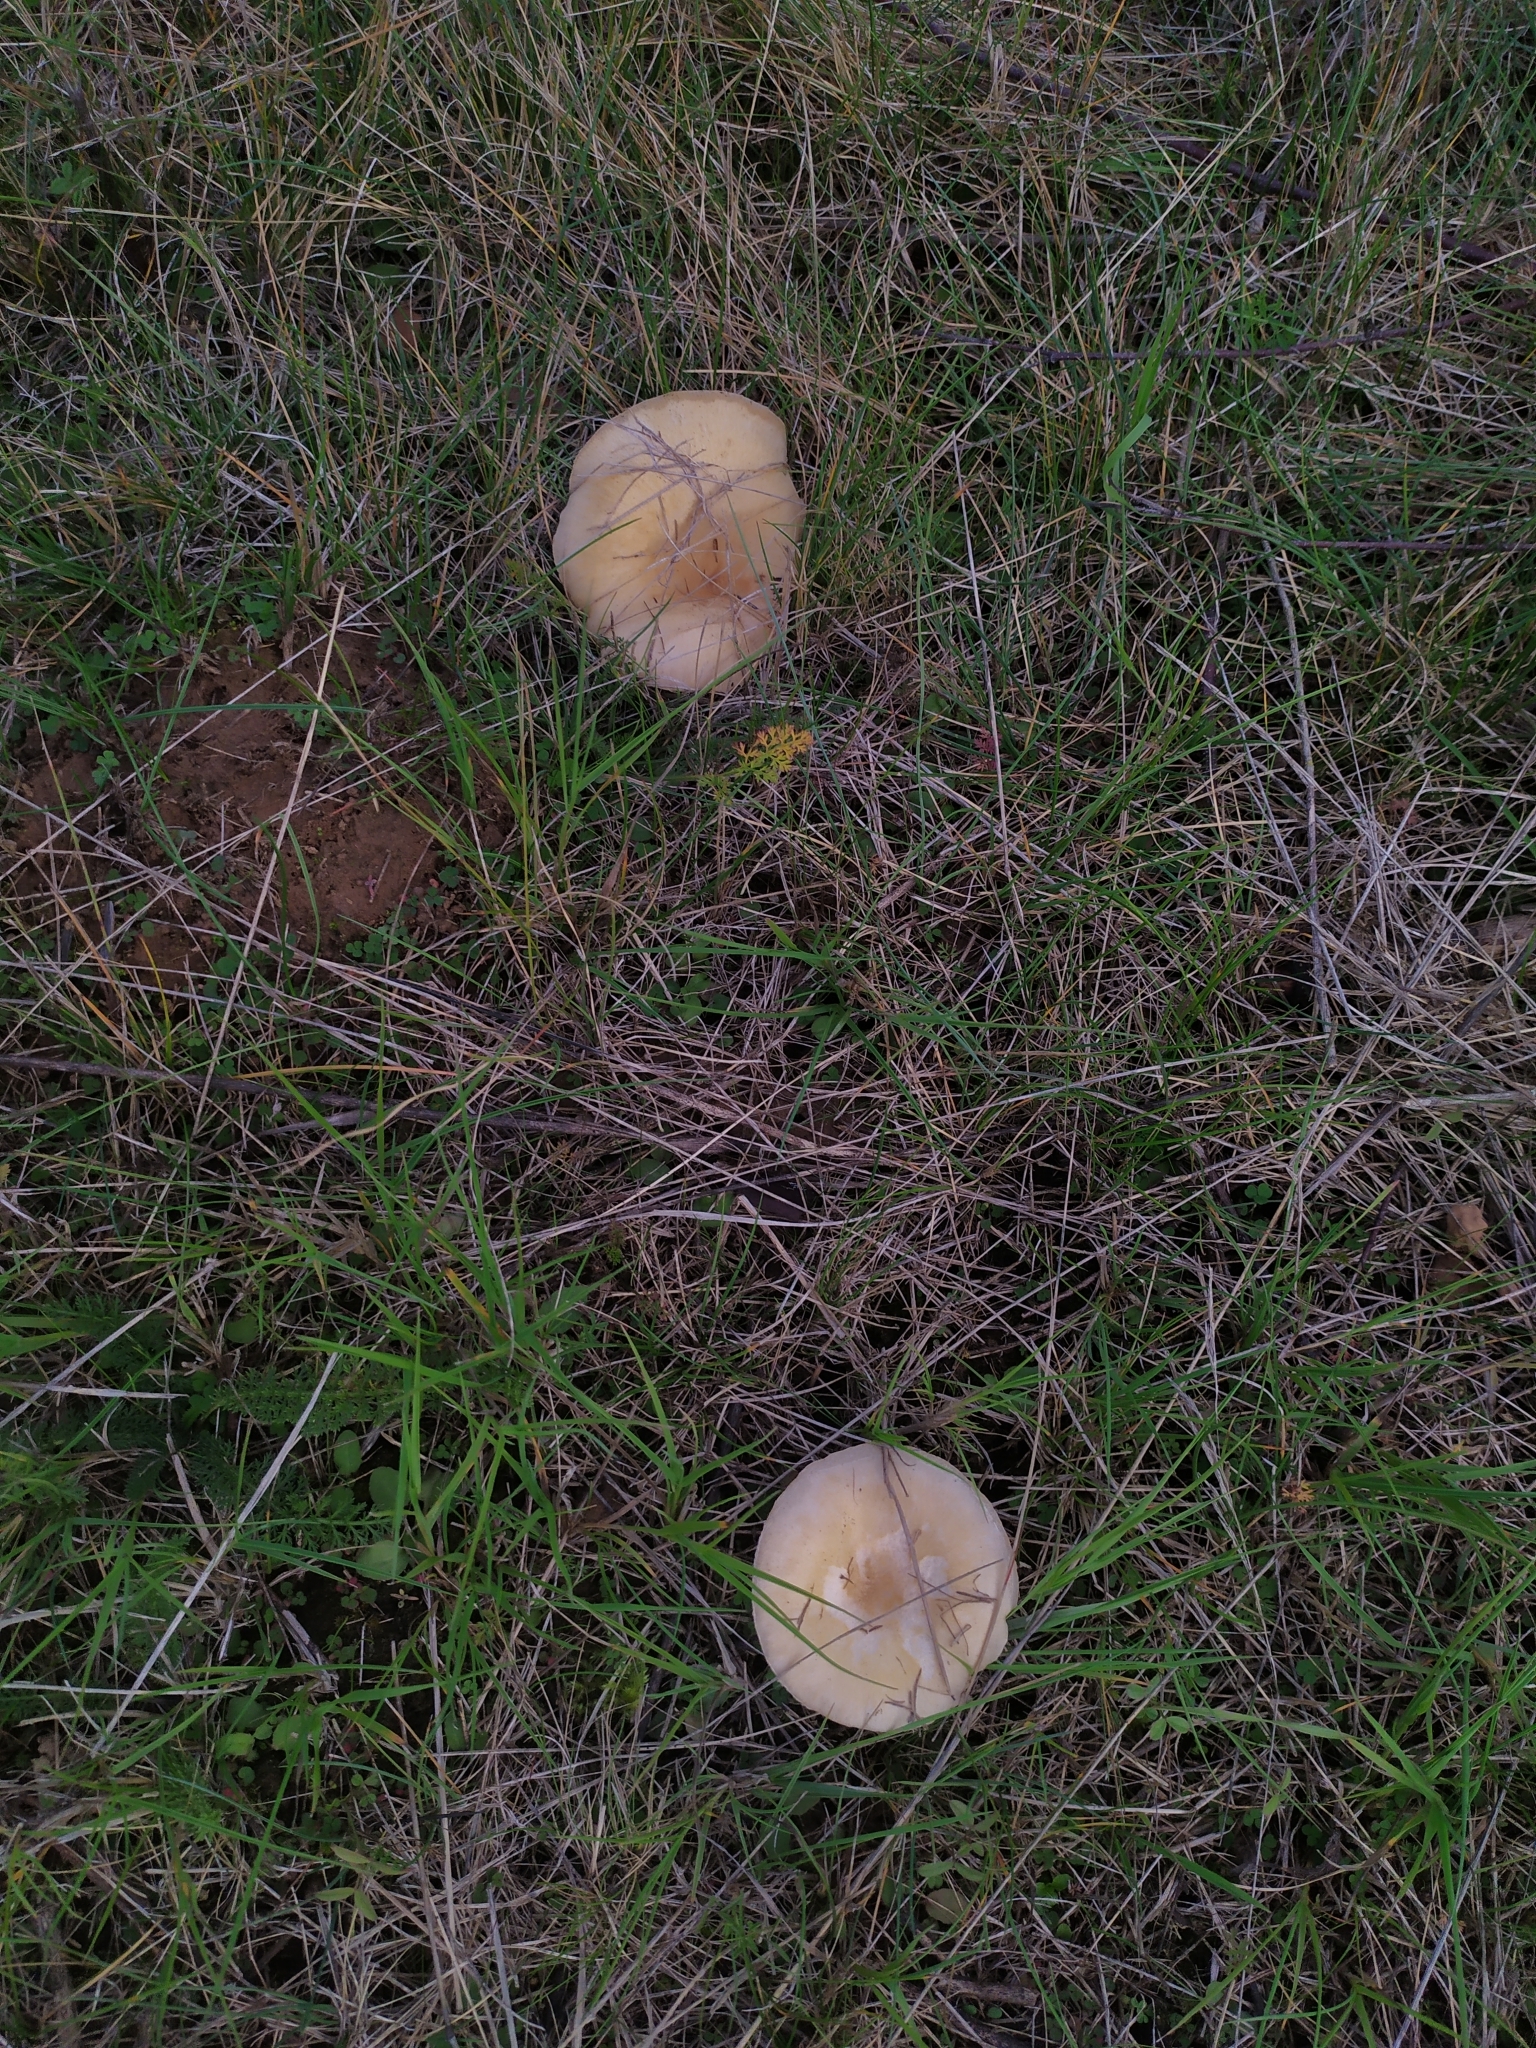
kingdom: Fungi
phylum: Basidiomycota
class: Agaricomycetes
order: Agaricales
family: Tricholomataceae
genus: Collybia
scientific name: Collybia
